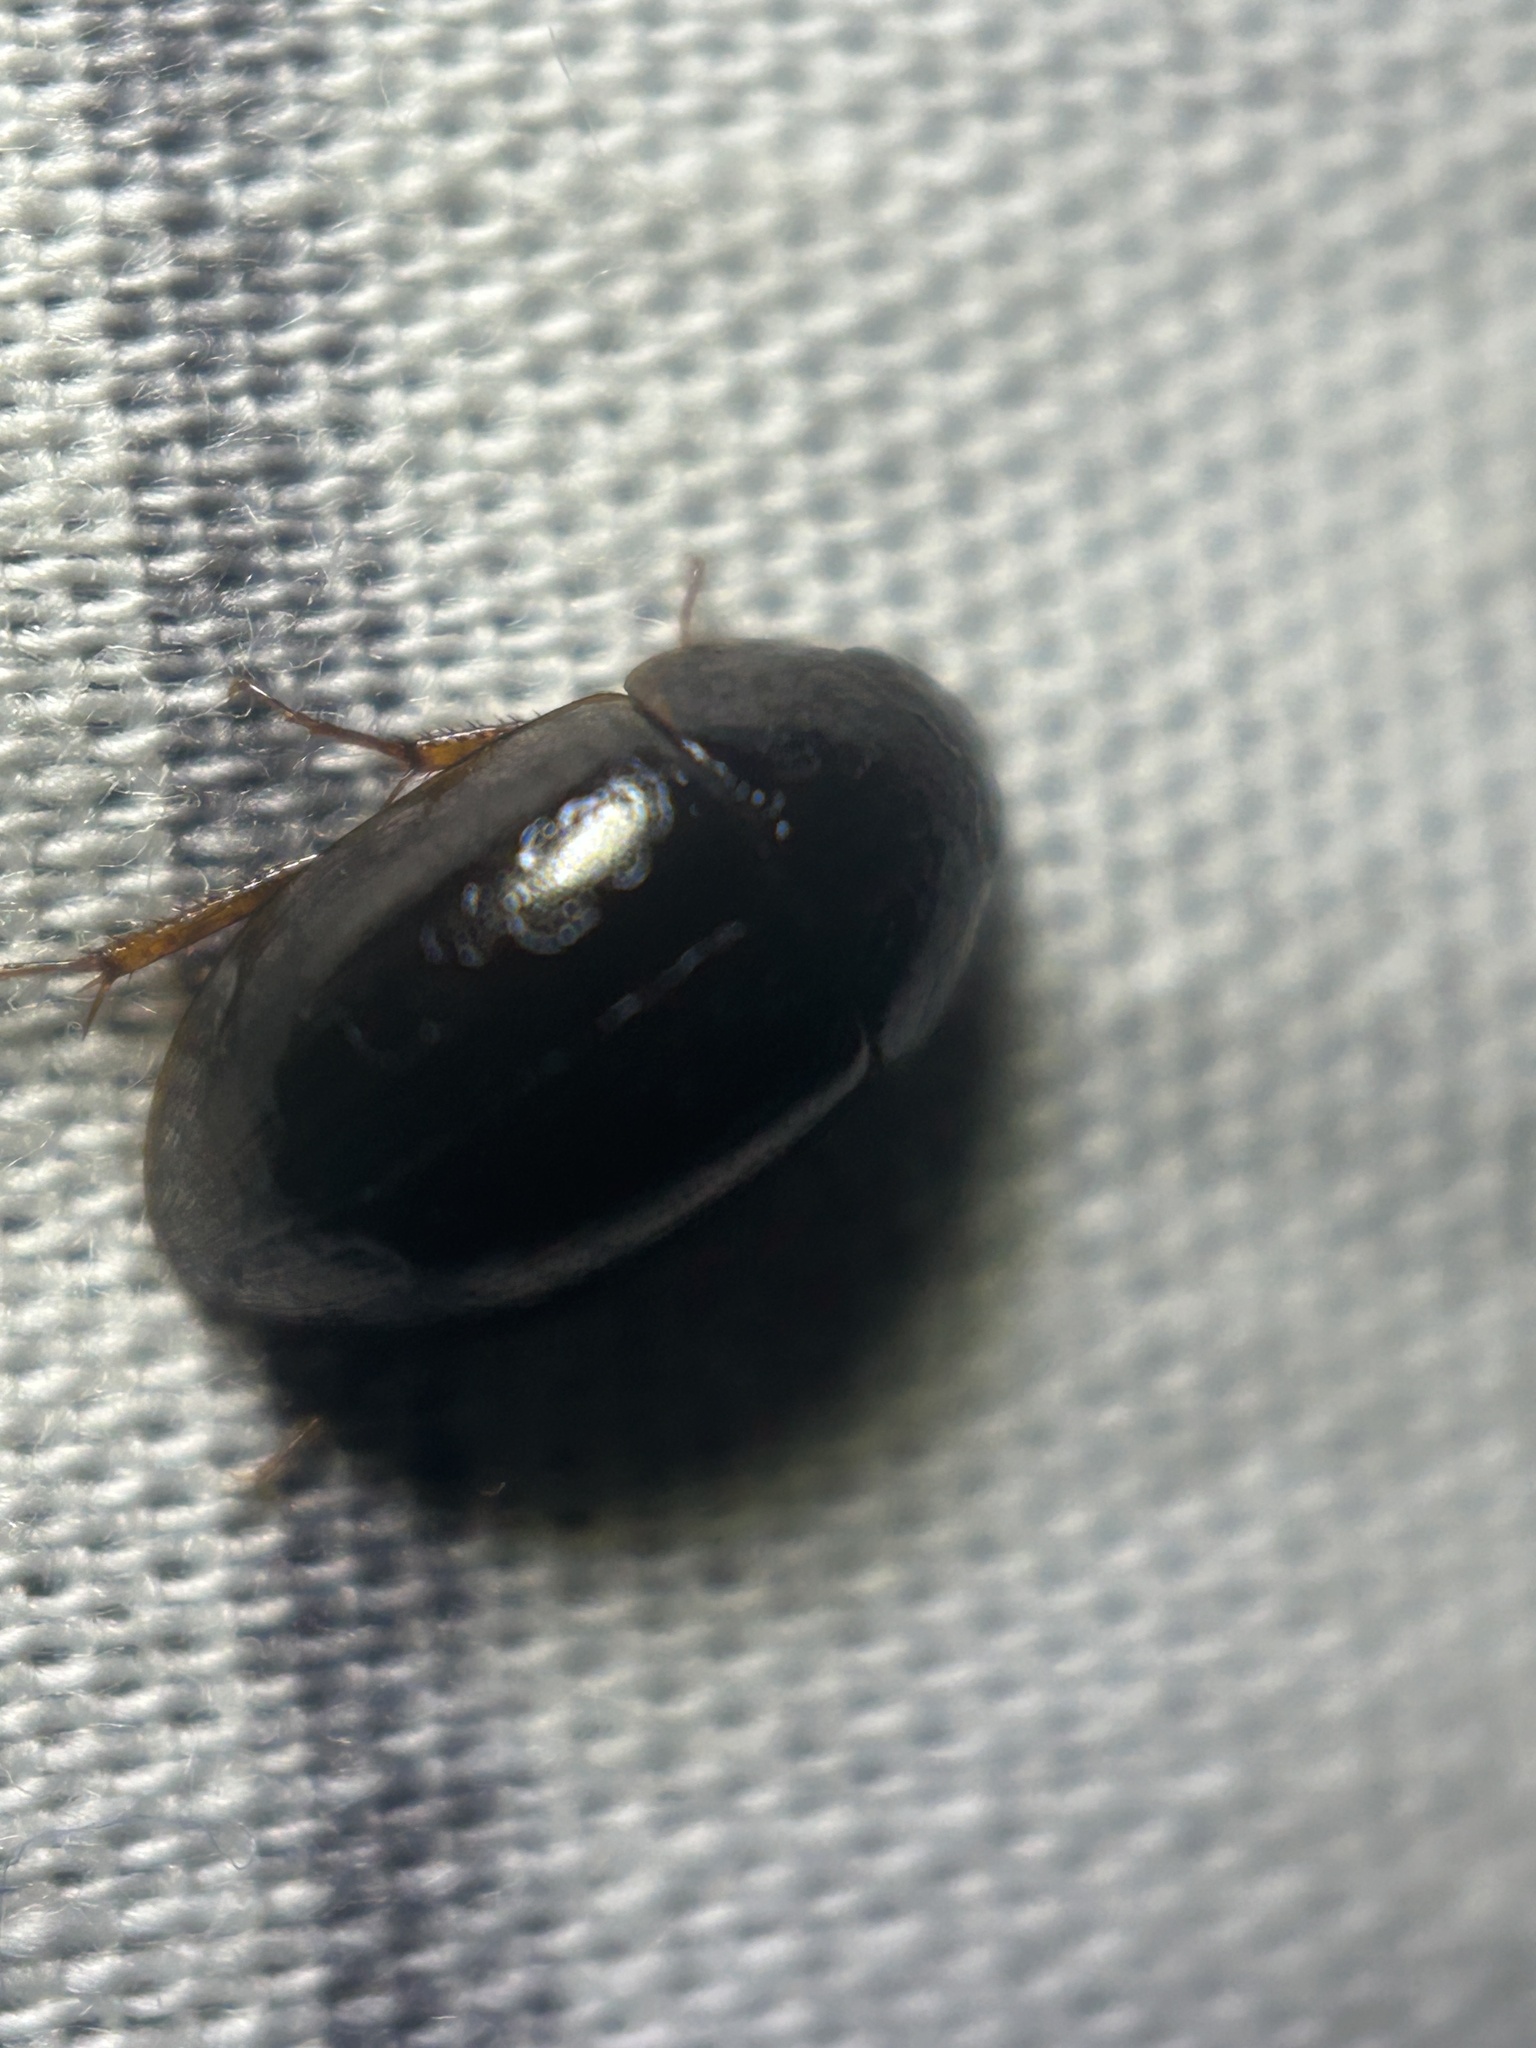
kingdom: Animalia
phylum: Arthropoda
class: Insecta
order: Coleoptera
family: Hydrophilidae
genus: Hydrobius
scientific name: Hydrobius fuscipes
